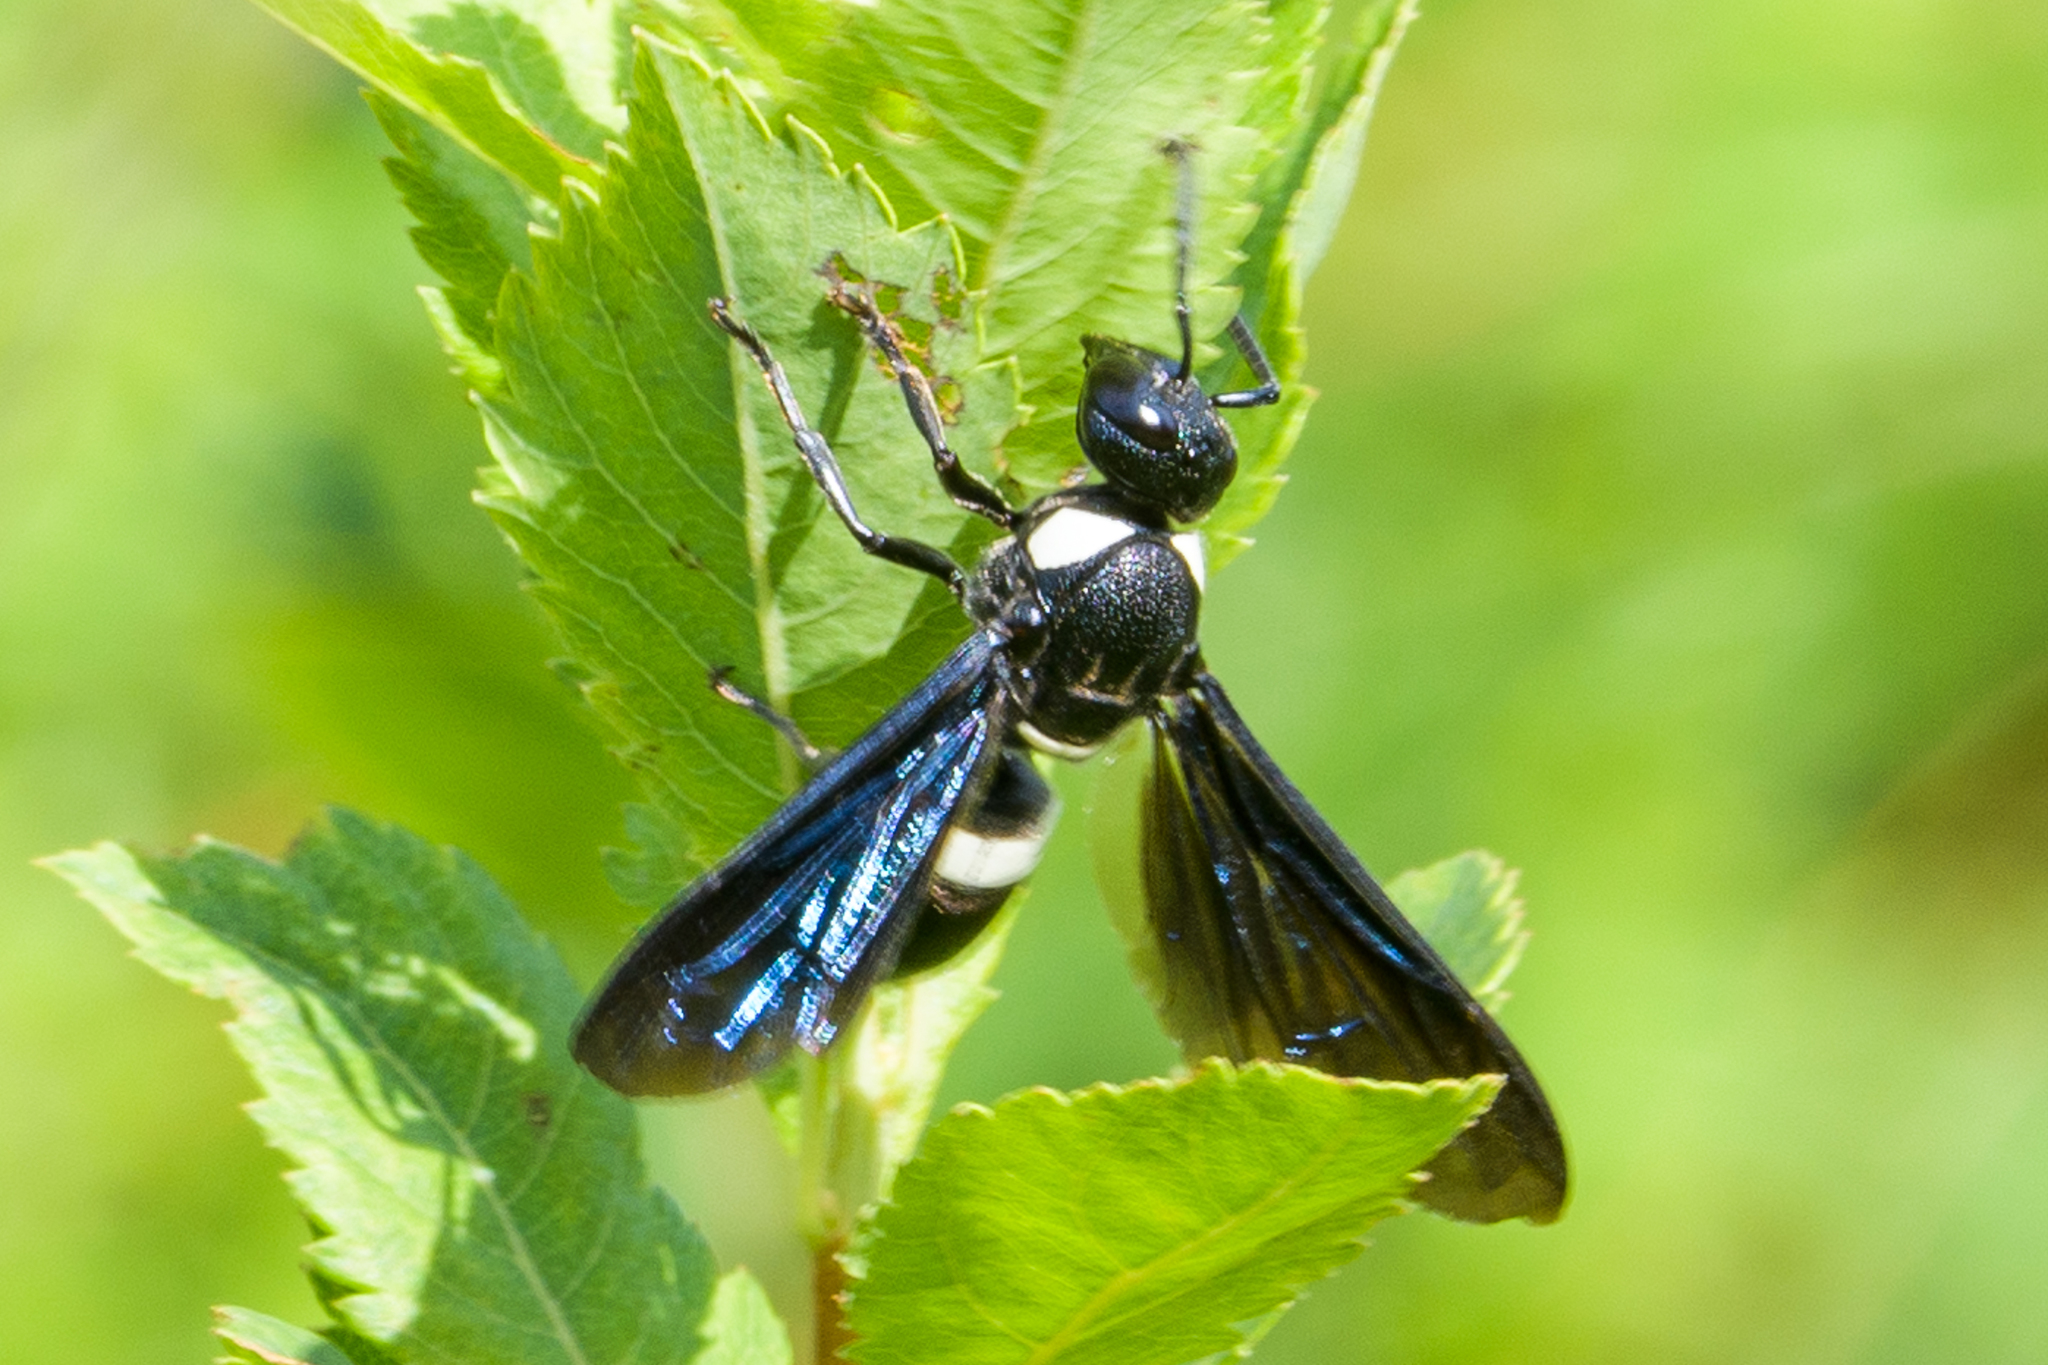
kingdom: Animalia
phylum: Arthropoda
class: Insecta
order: Hymenoptera
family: Eumenidae
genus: Monobia
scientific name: Monobia quadridens
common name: Four-toothed mason wasp
